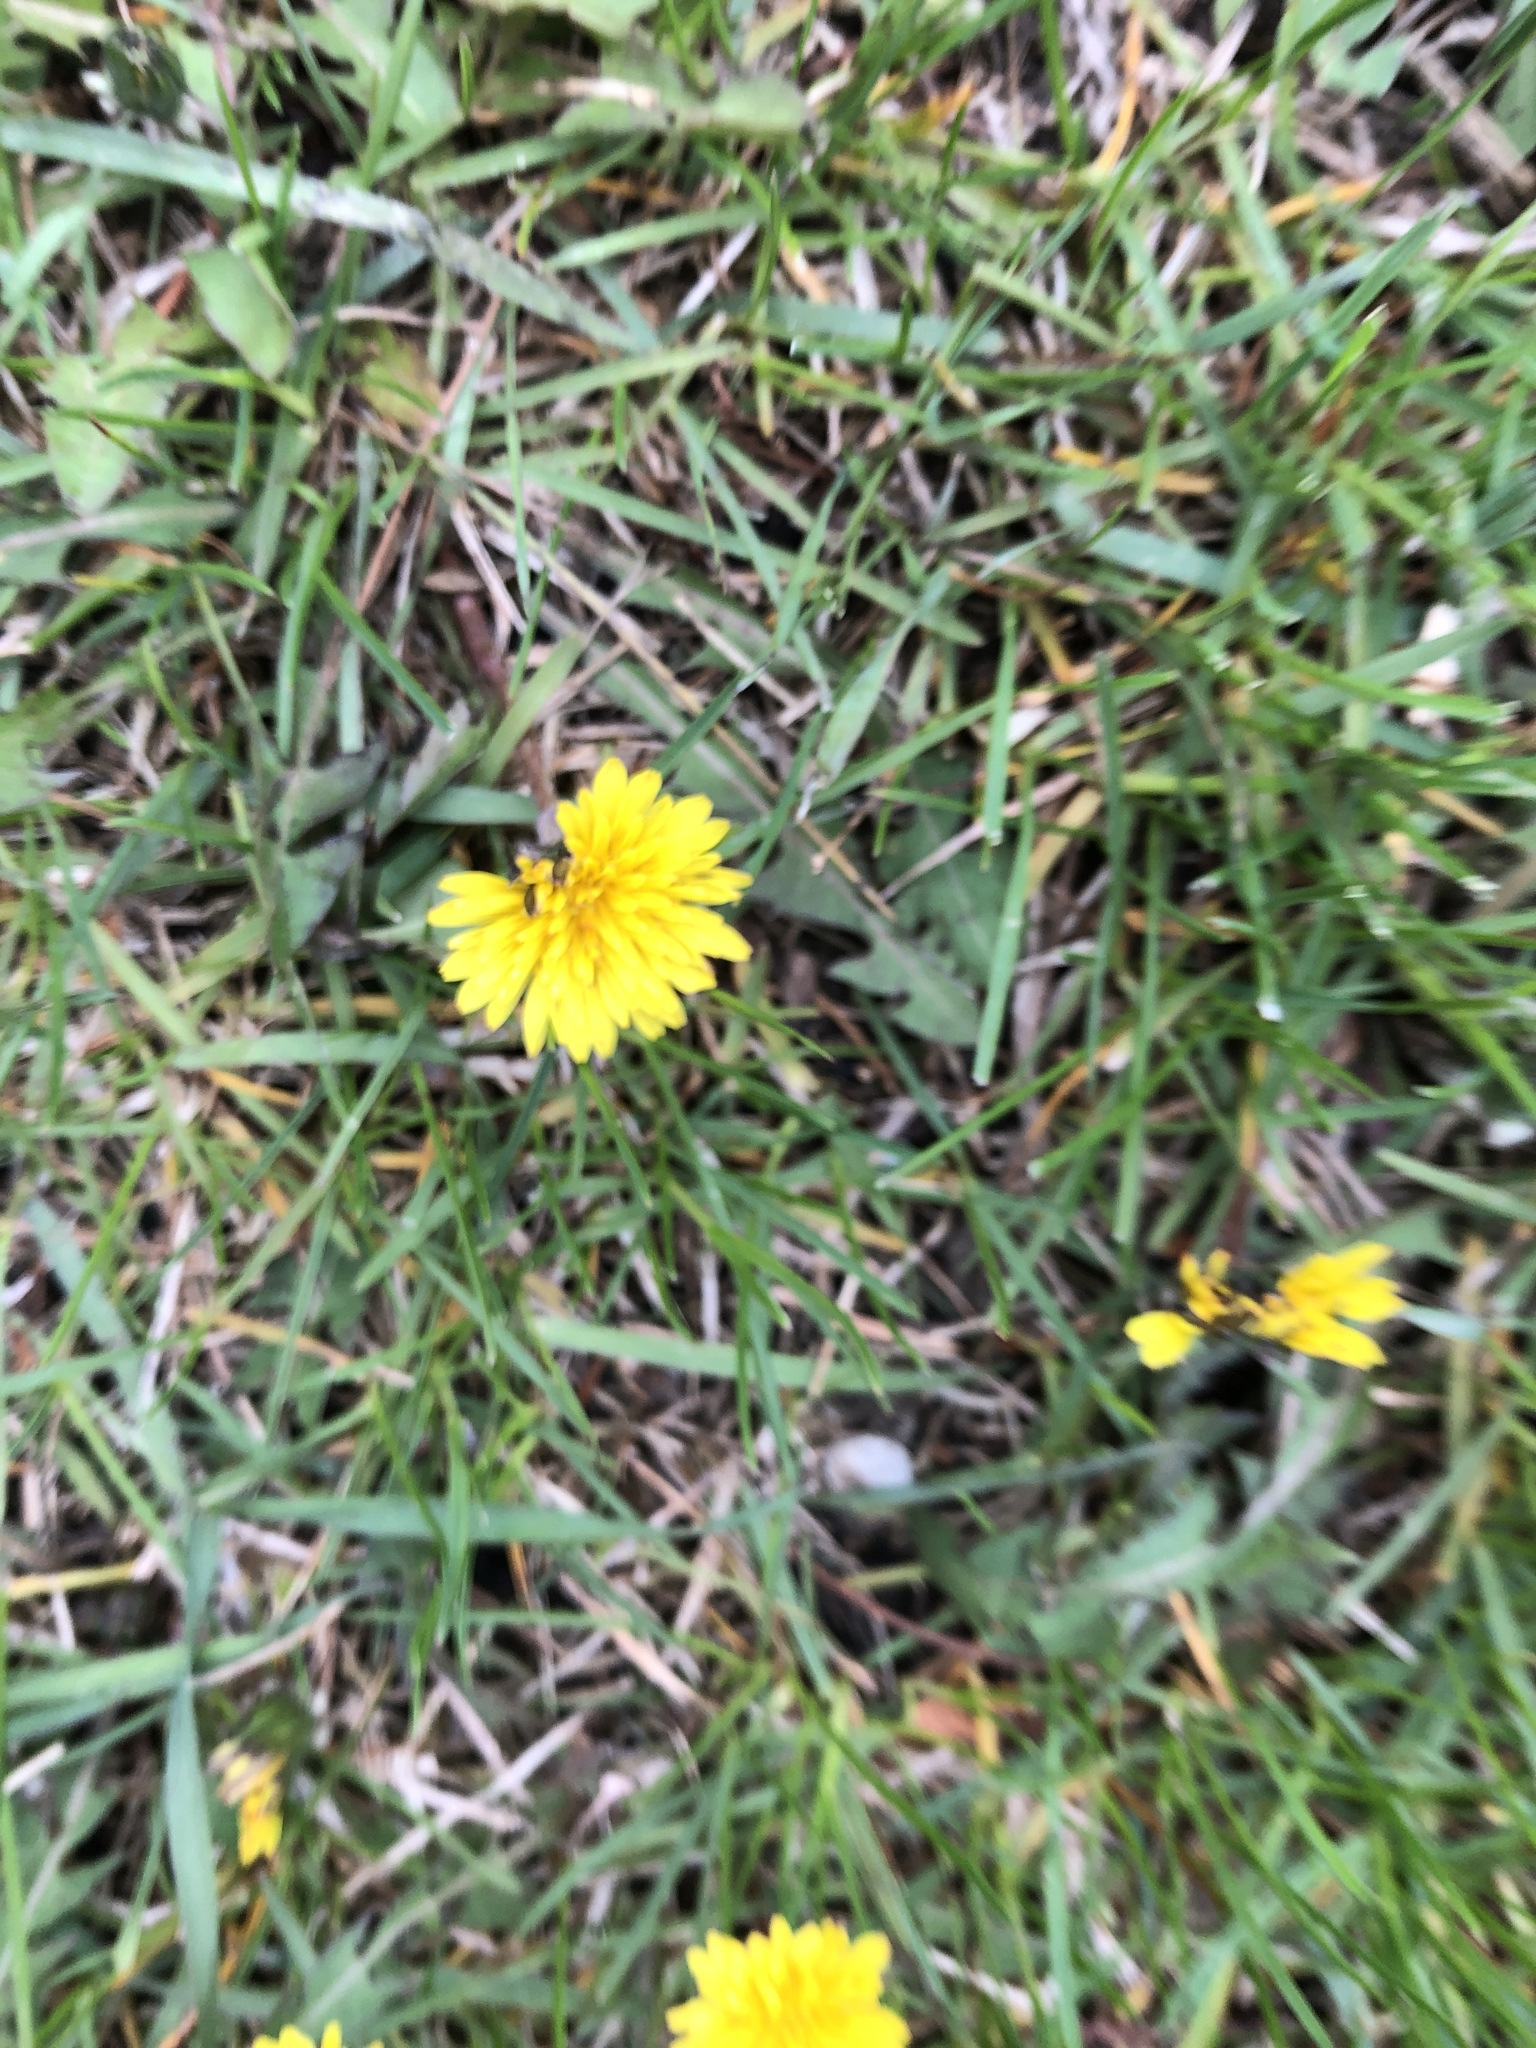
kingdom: Plantae
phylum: Tracheophyta
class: Magnoliopsida
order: Asterales
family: Asteraceae
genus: Taraxacum
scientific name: Taraxacum officinale
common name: Common dandelion
